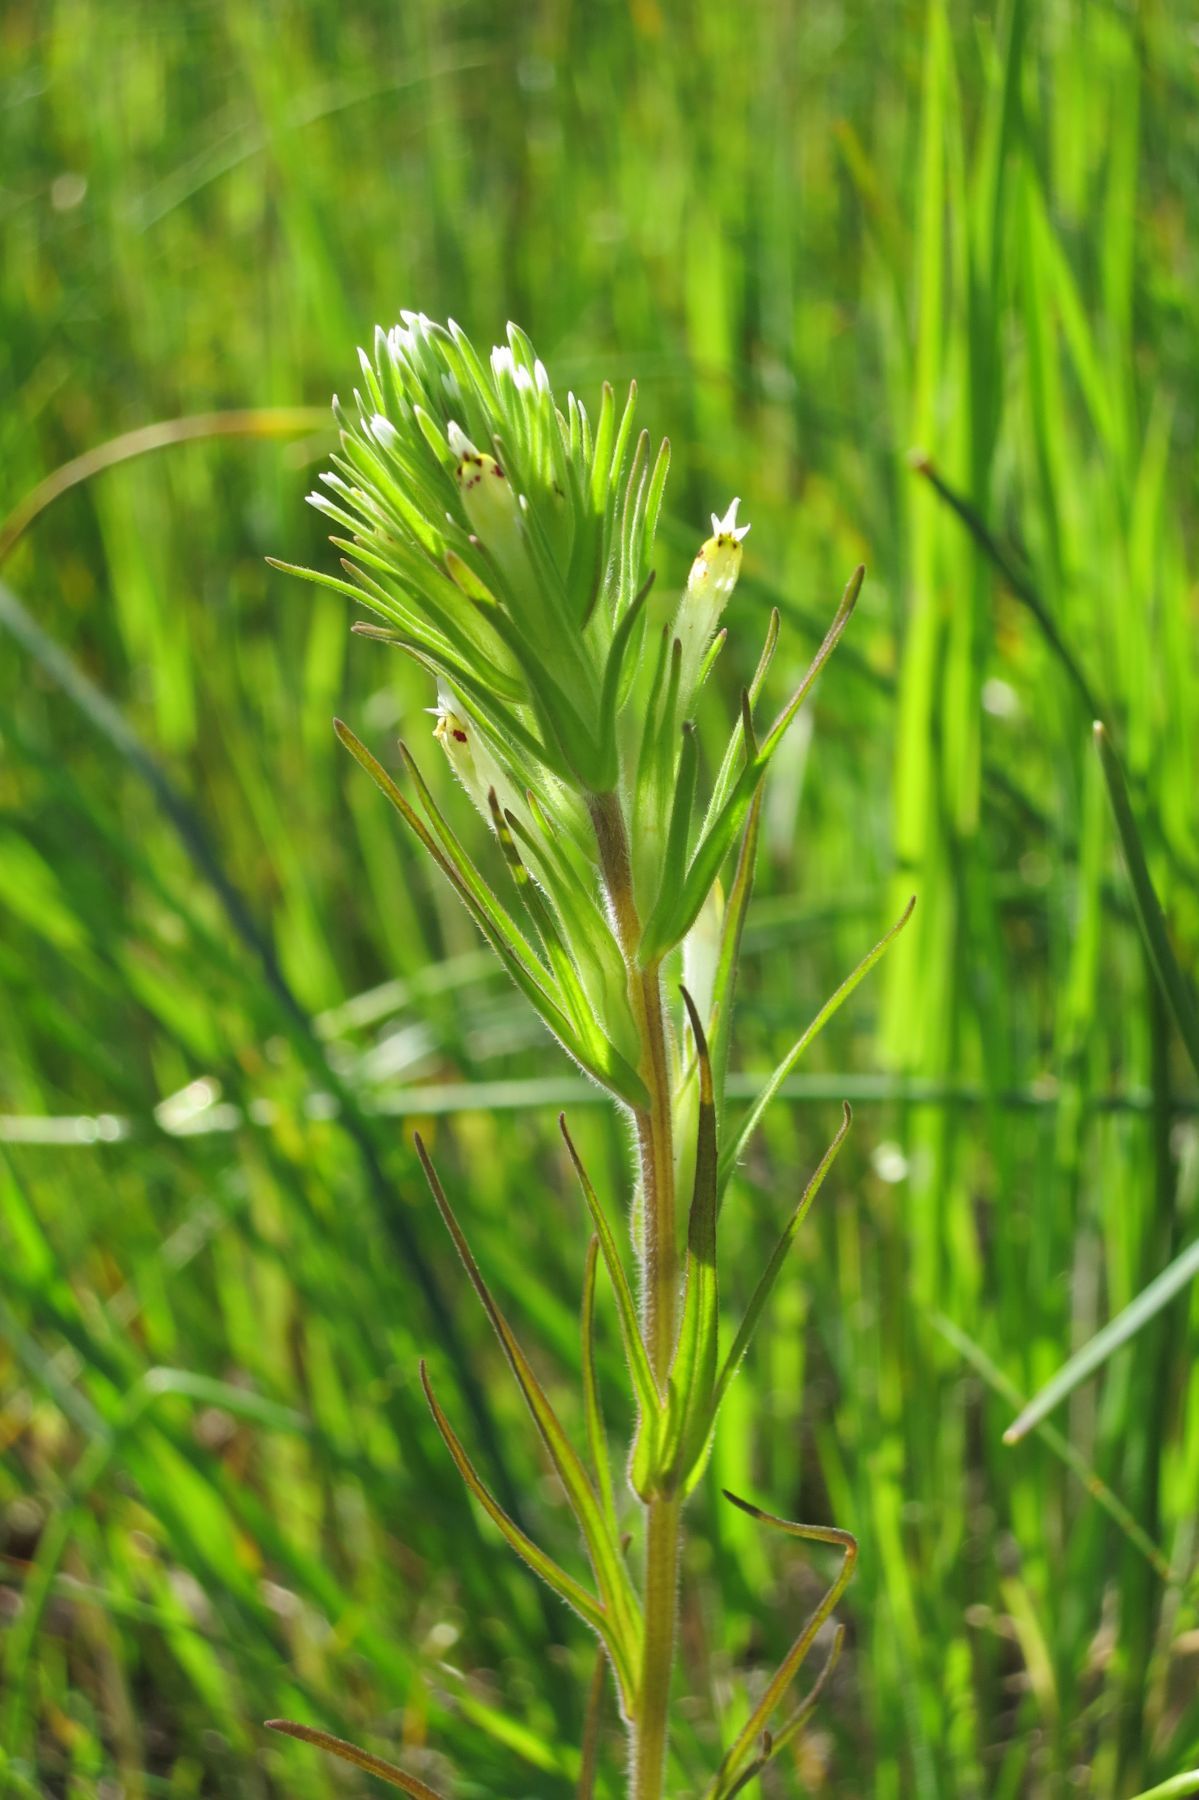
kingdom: Plantae
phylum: Tracheophyta
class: Magnoliopsida
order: Lamiales
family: Orobanchaceae
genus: Castilleja
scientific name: Castilleja attenuata
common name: Valley tassels
